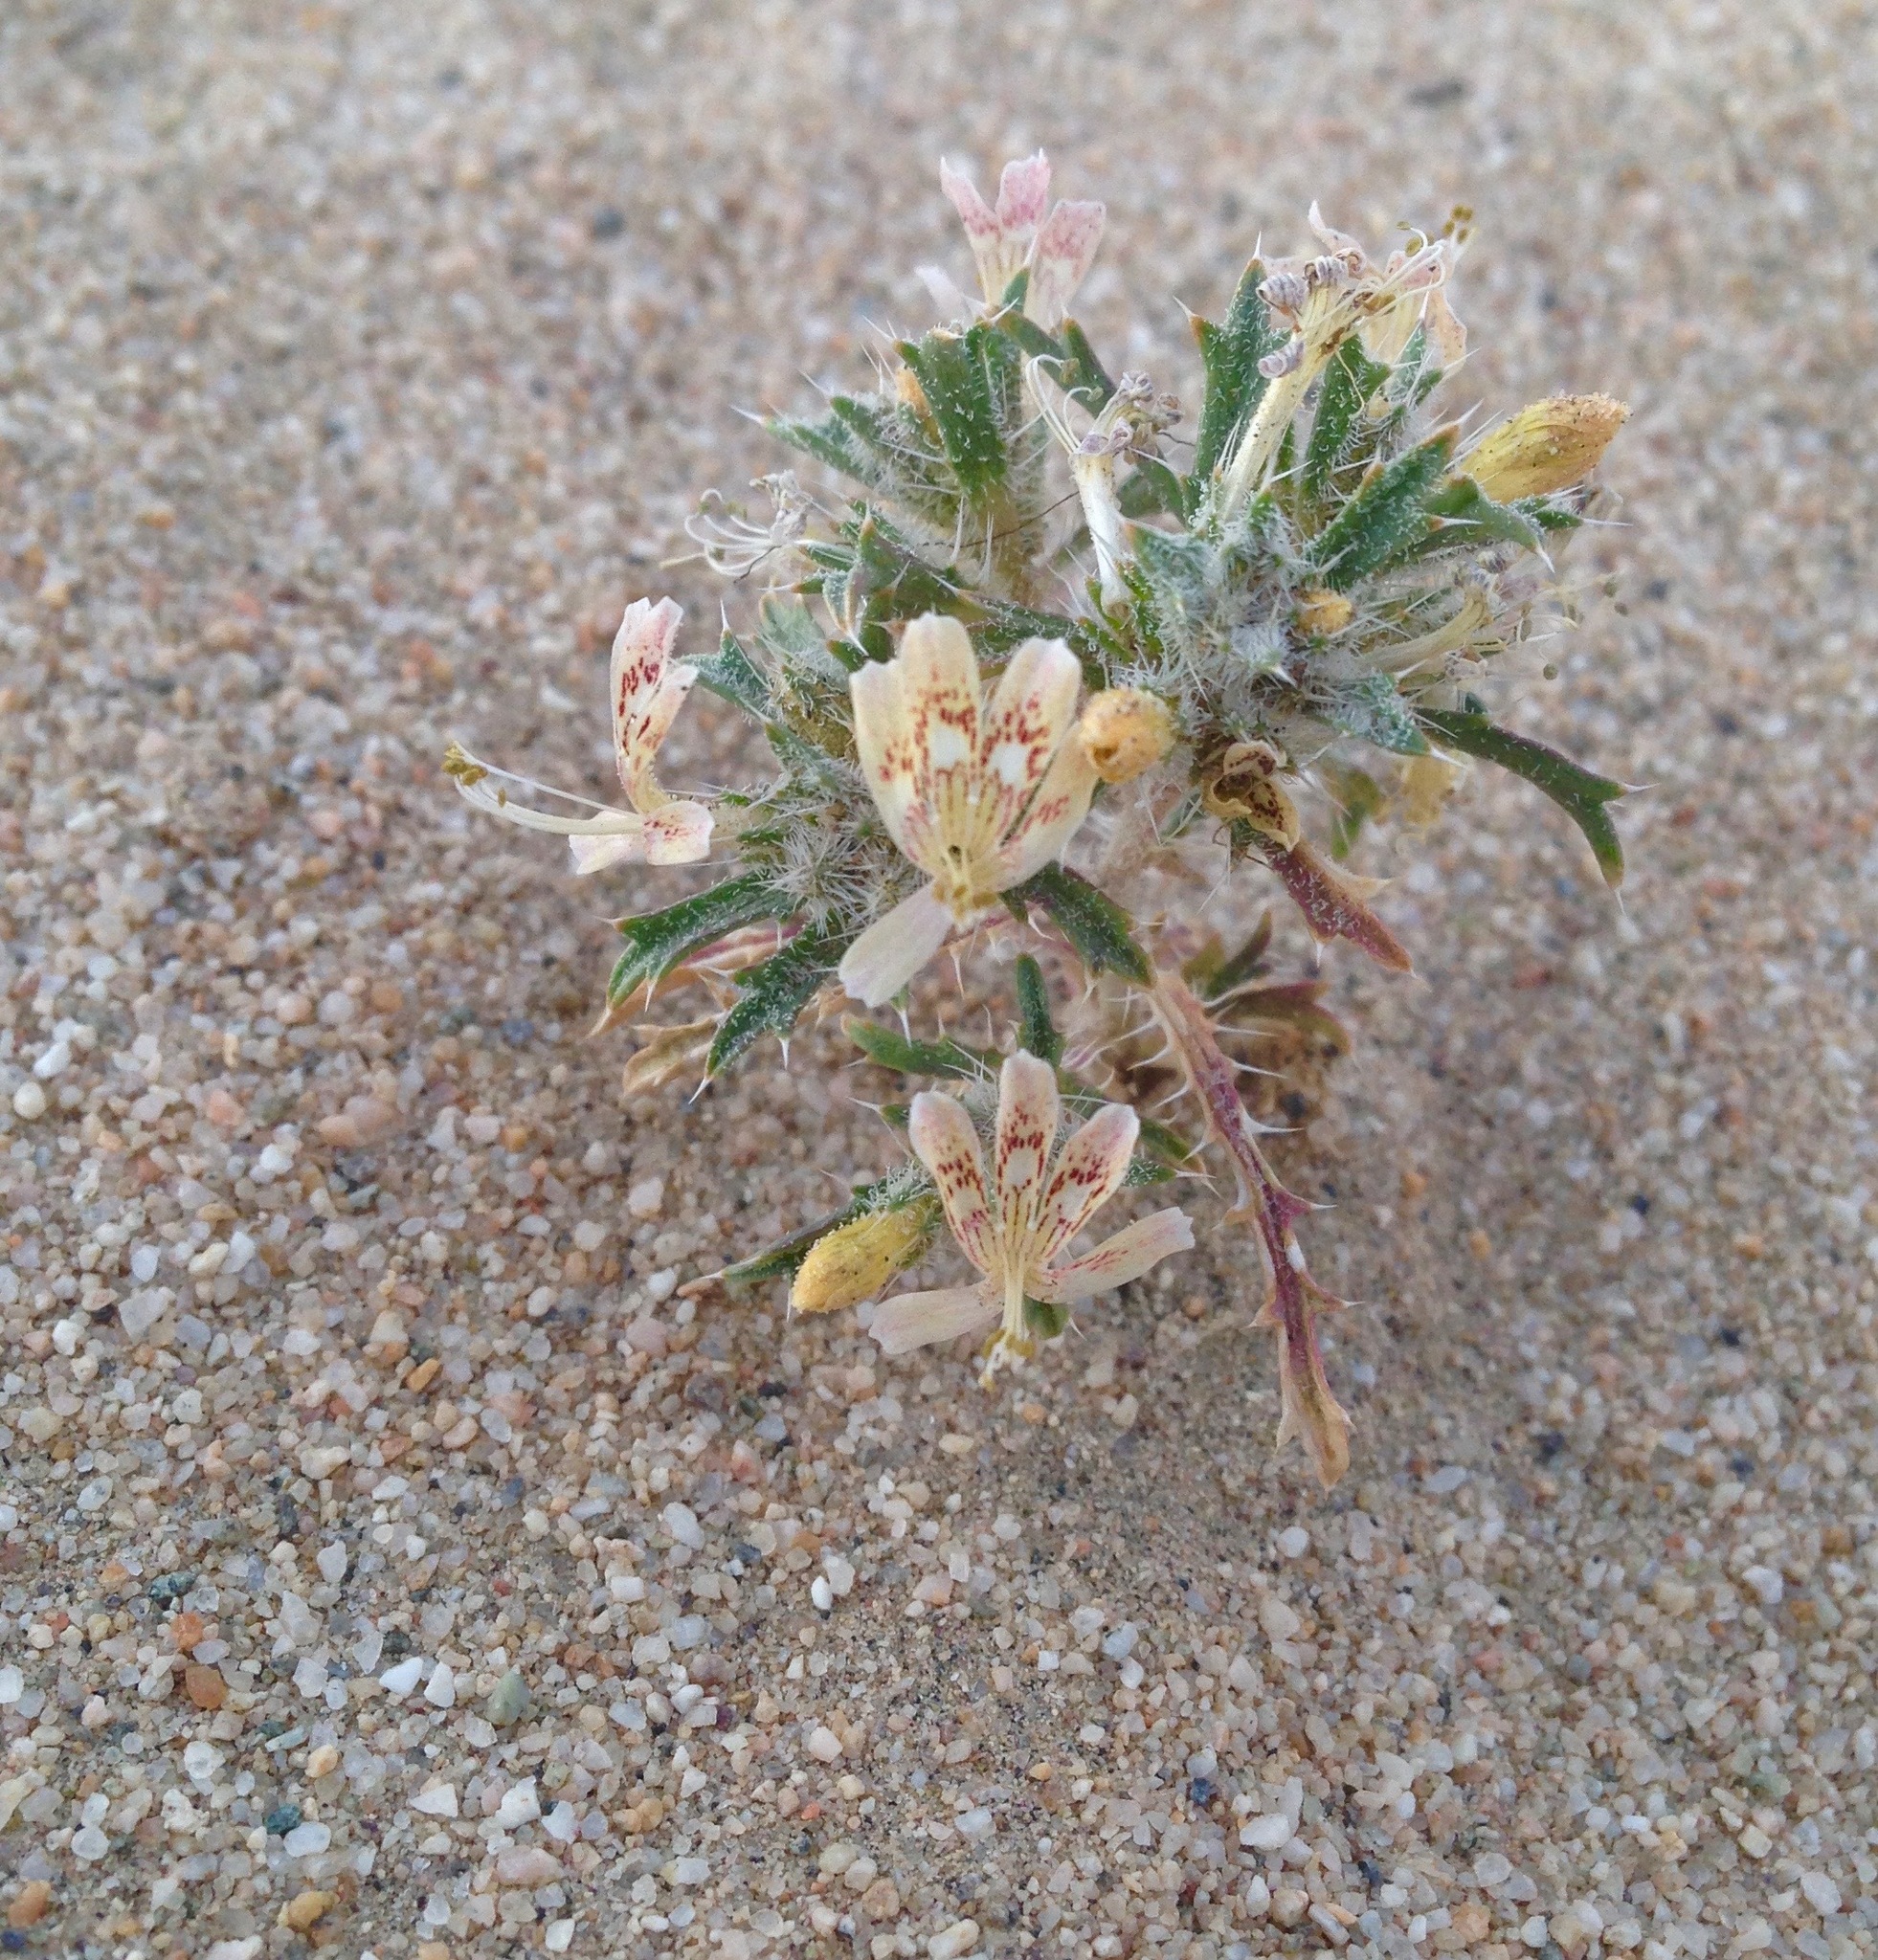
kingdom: Plantae
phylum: Tracheophyta
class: Magnoliopsida
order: Ericales
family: Polemoniaceae
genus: Loeseliastrum
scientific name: Loeseliastrum matthewsii
